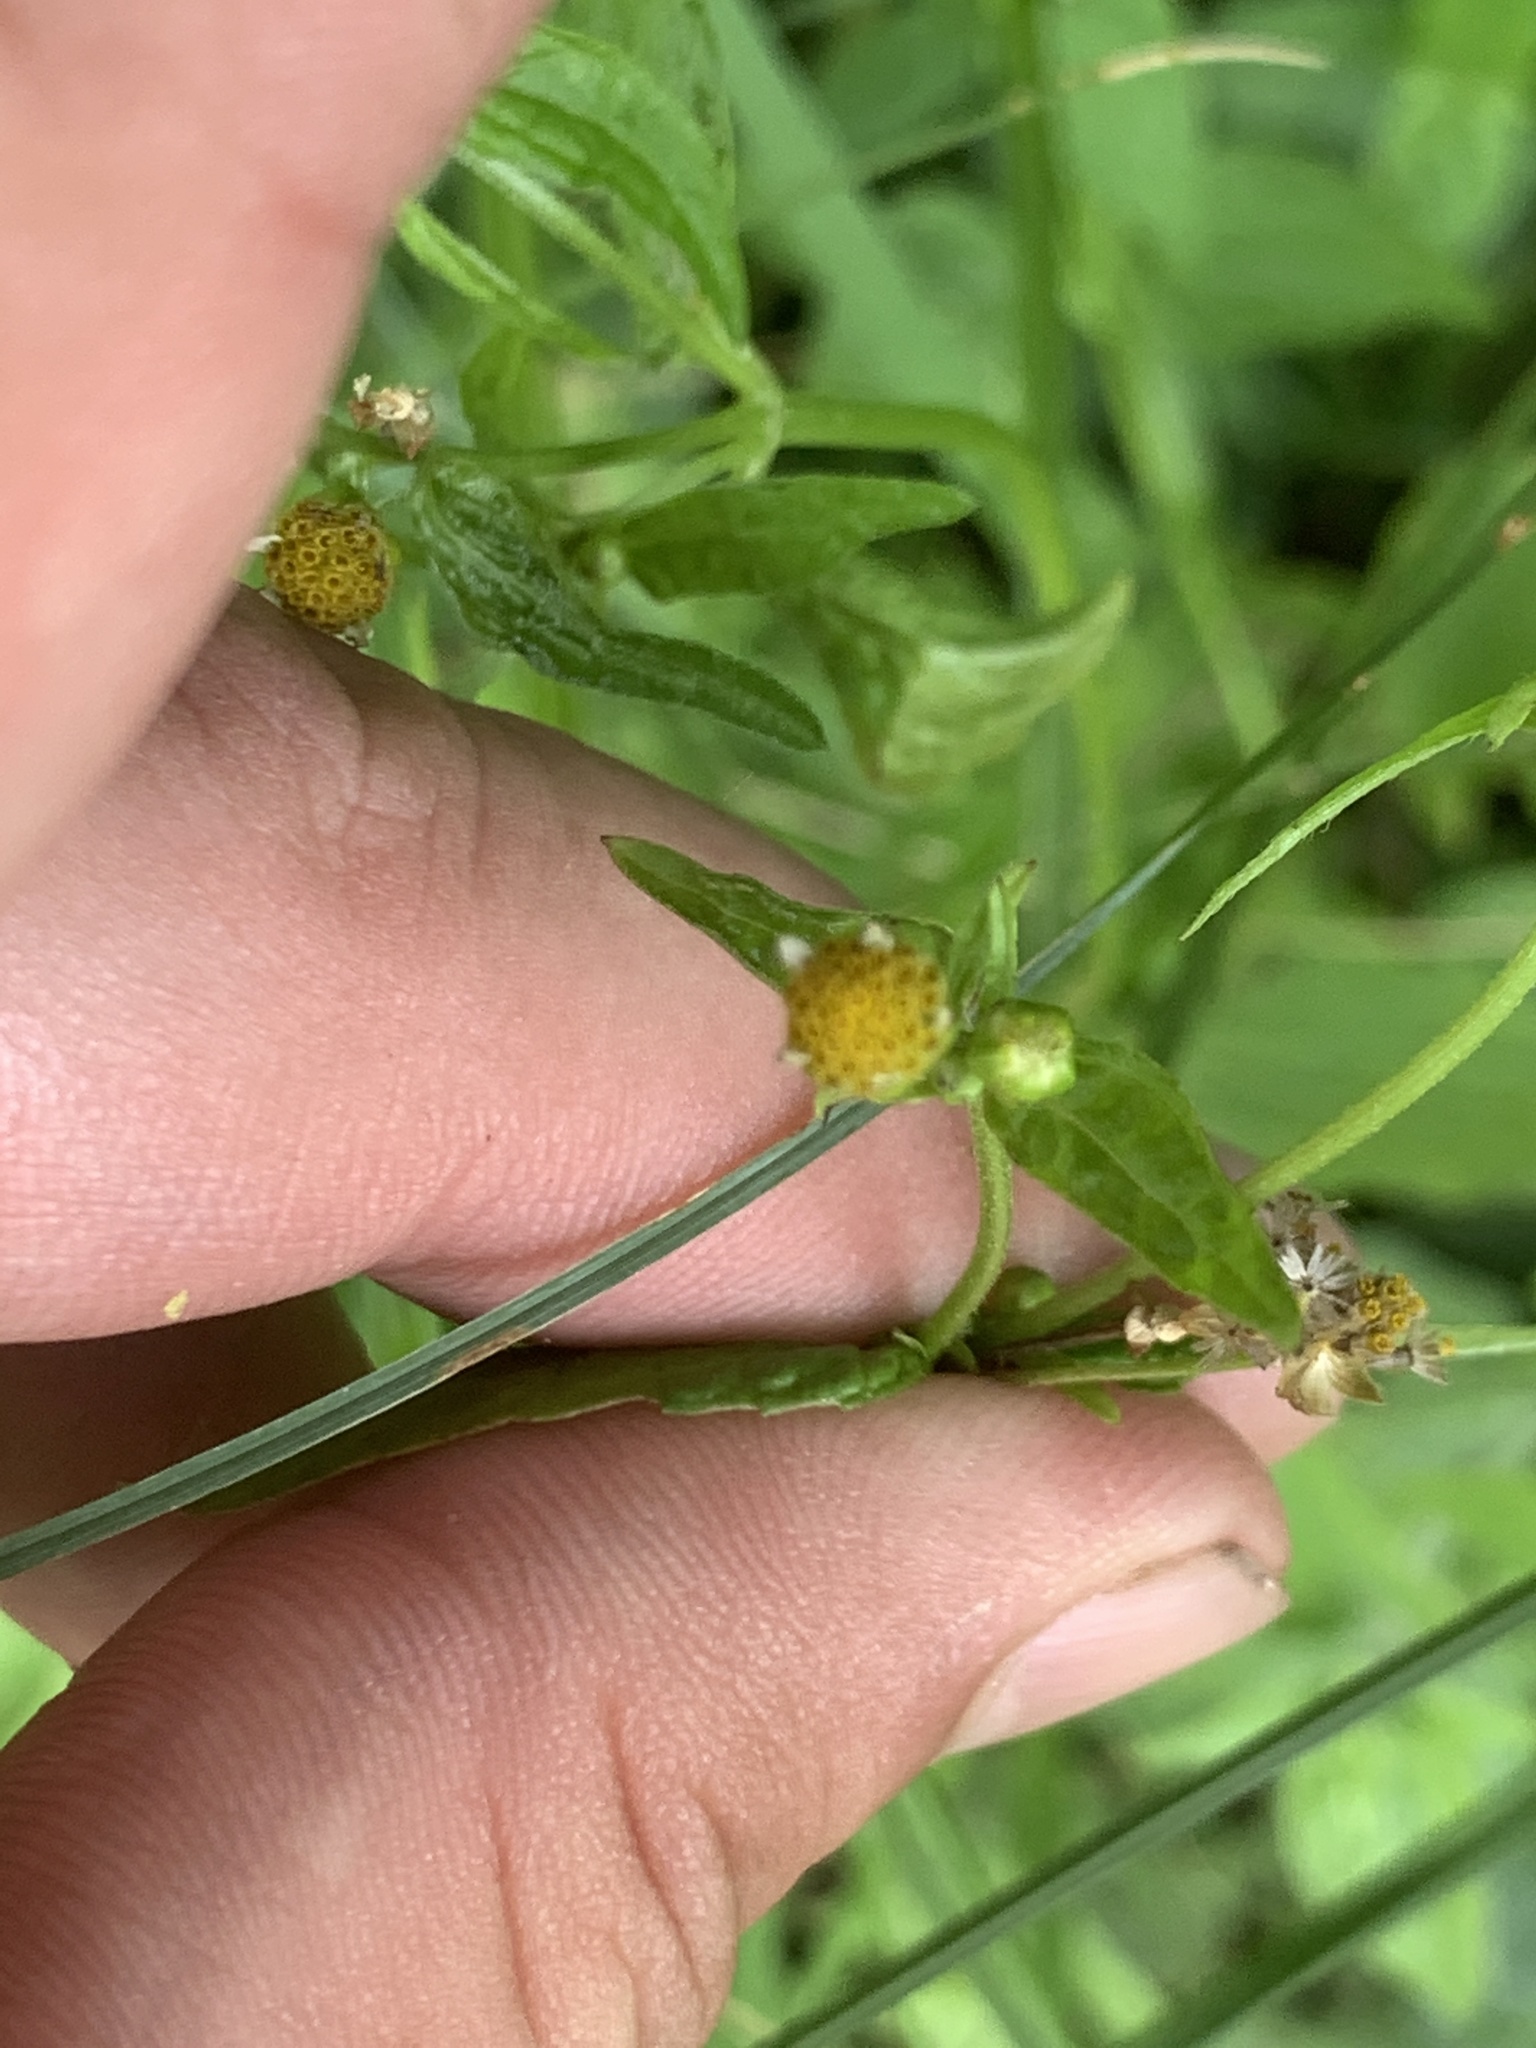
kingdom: Plantae
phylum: Tracheophyta
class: Magnoliopsida
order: Asterales
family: Asteraceae
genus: Galinsoga
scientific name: Galinsoga parviflora
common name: Gallant soldier
